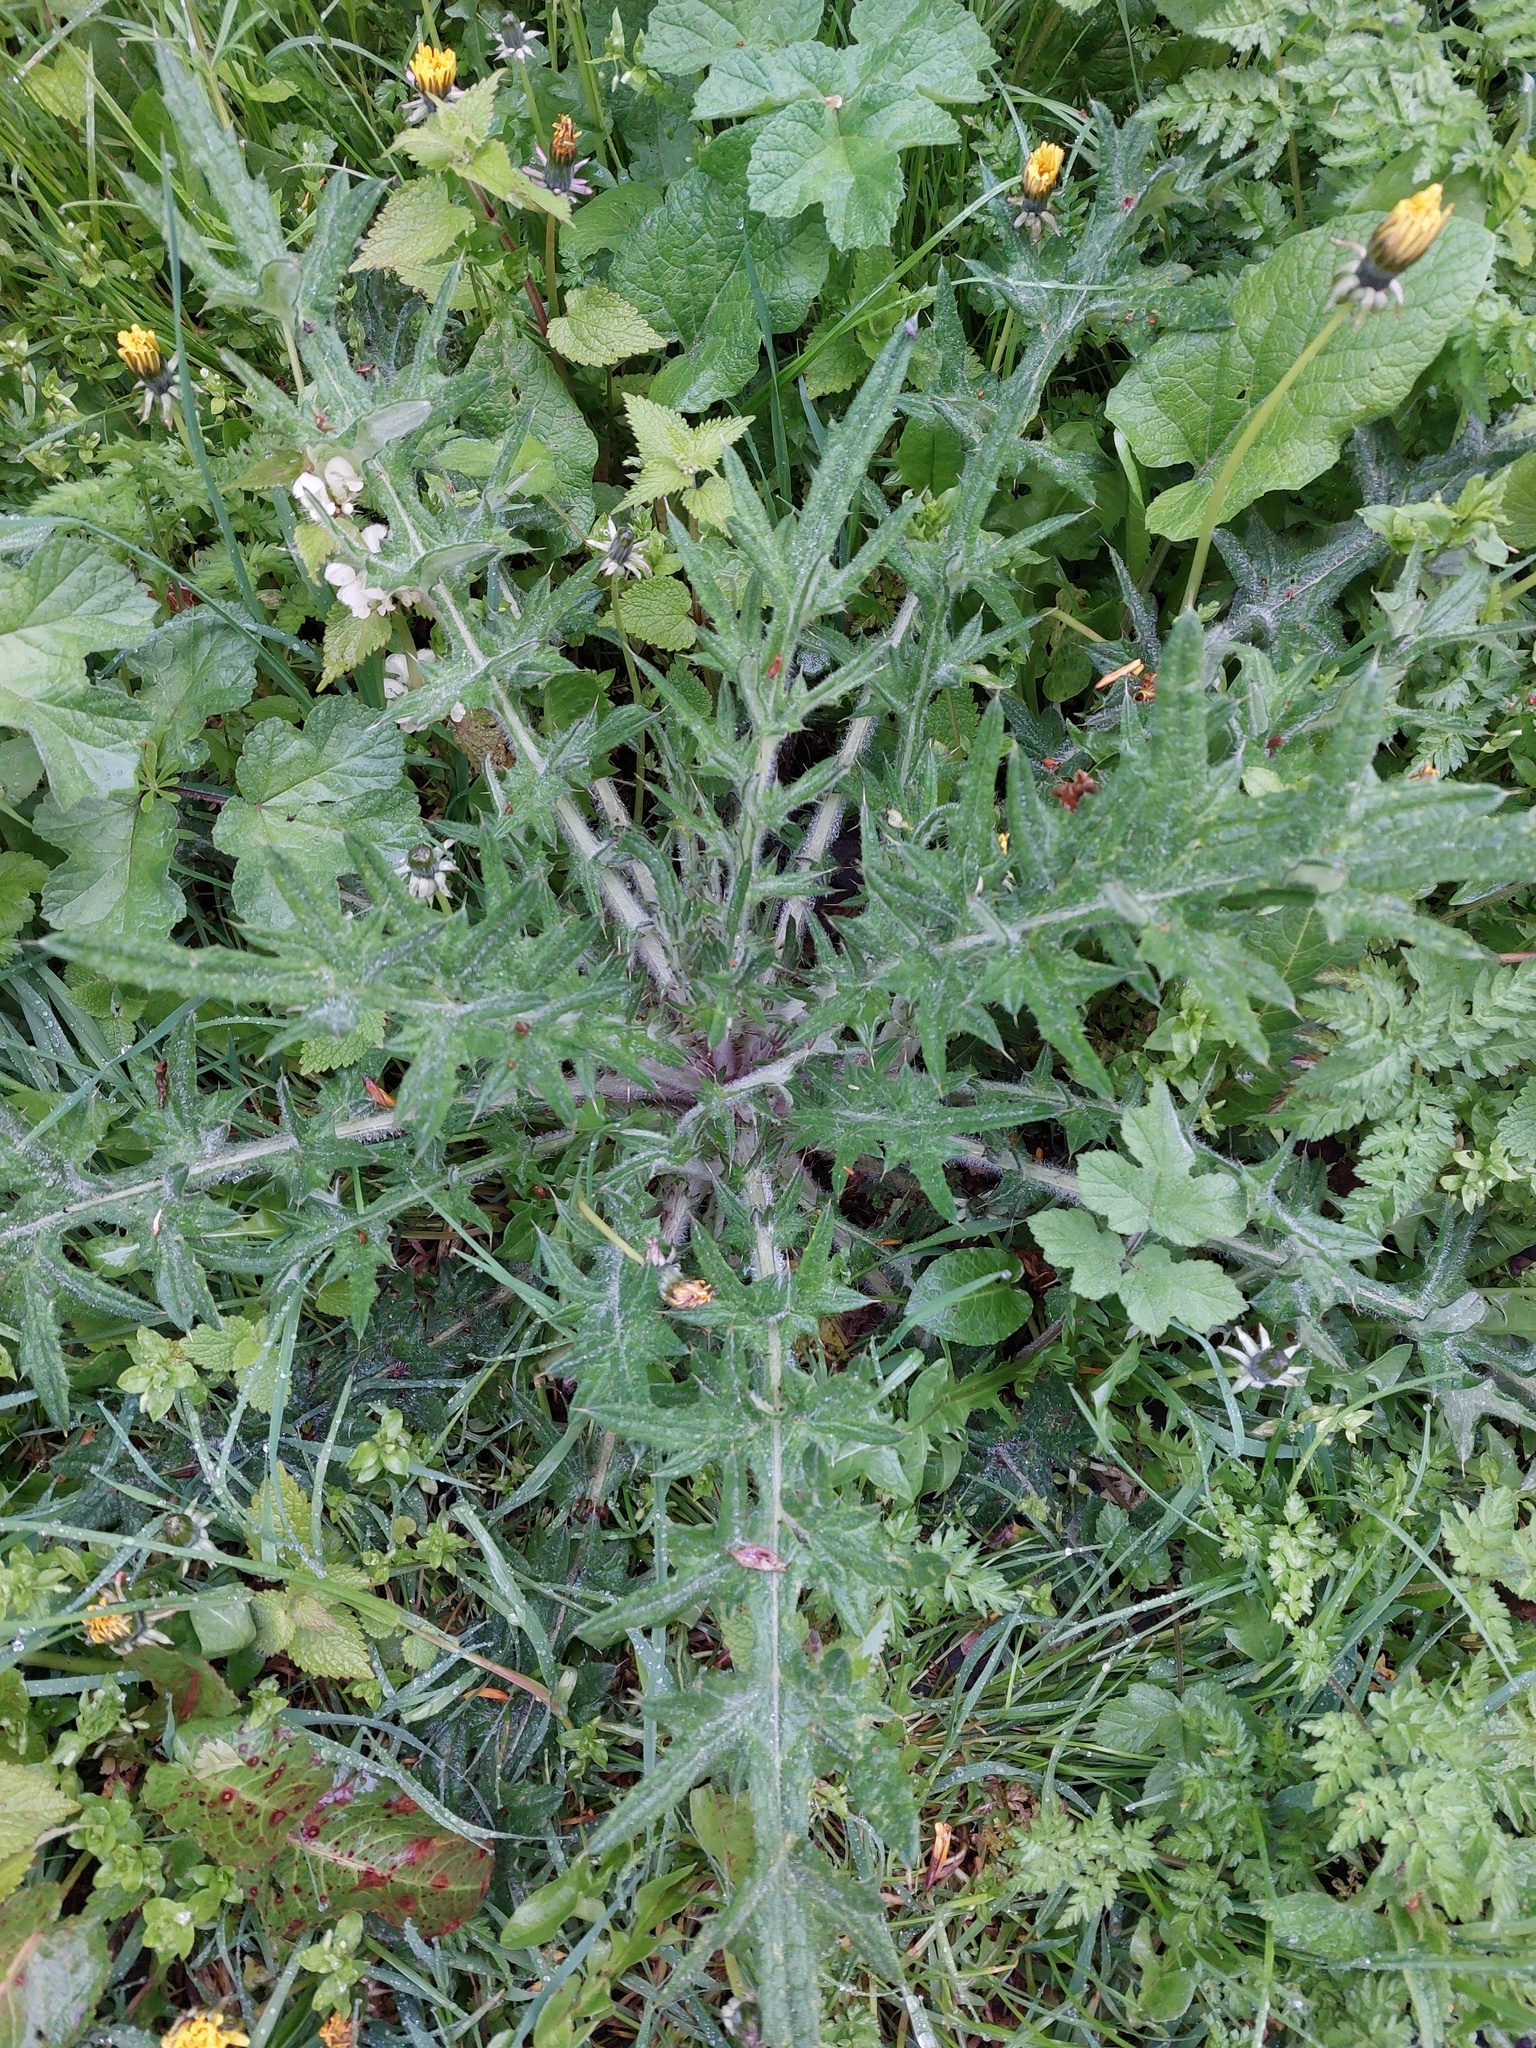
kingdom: Plantae
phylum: Tracheophyta
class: Magnoliopsida
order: Asterales
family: Asteraceae
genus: Cirsium
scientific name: Cirsium vulgare
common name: Bull thistle
